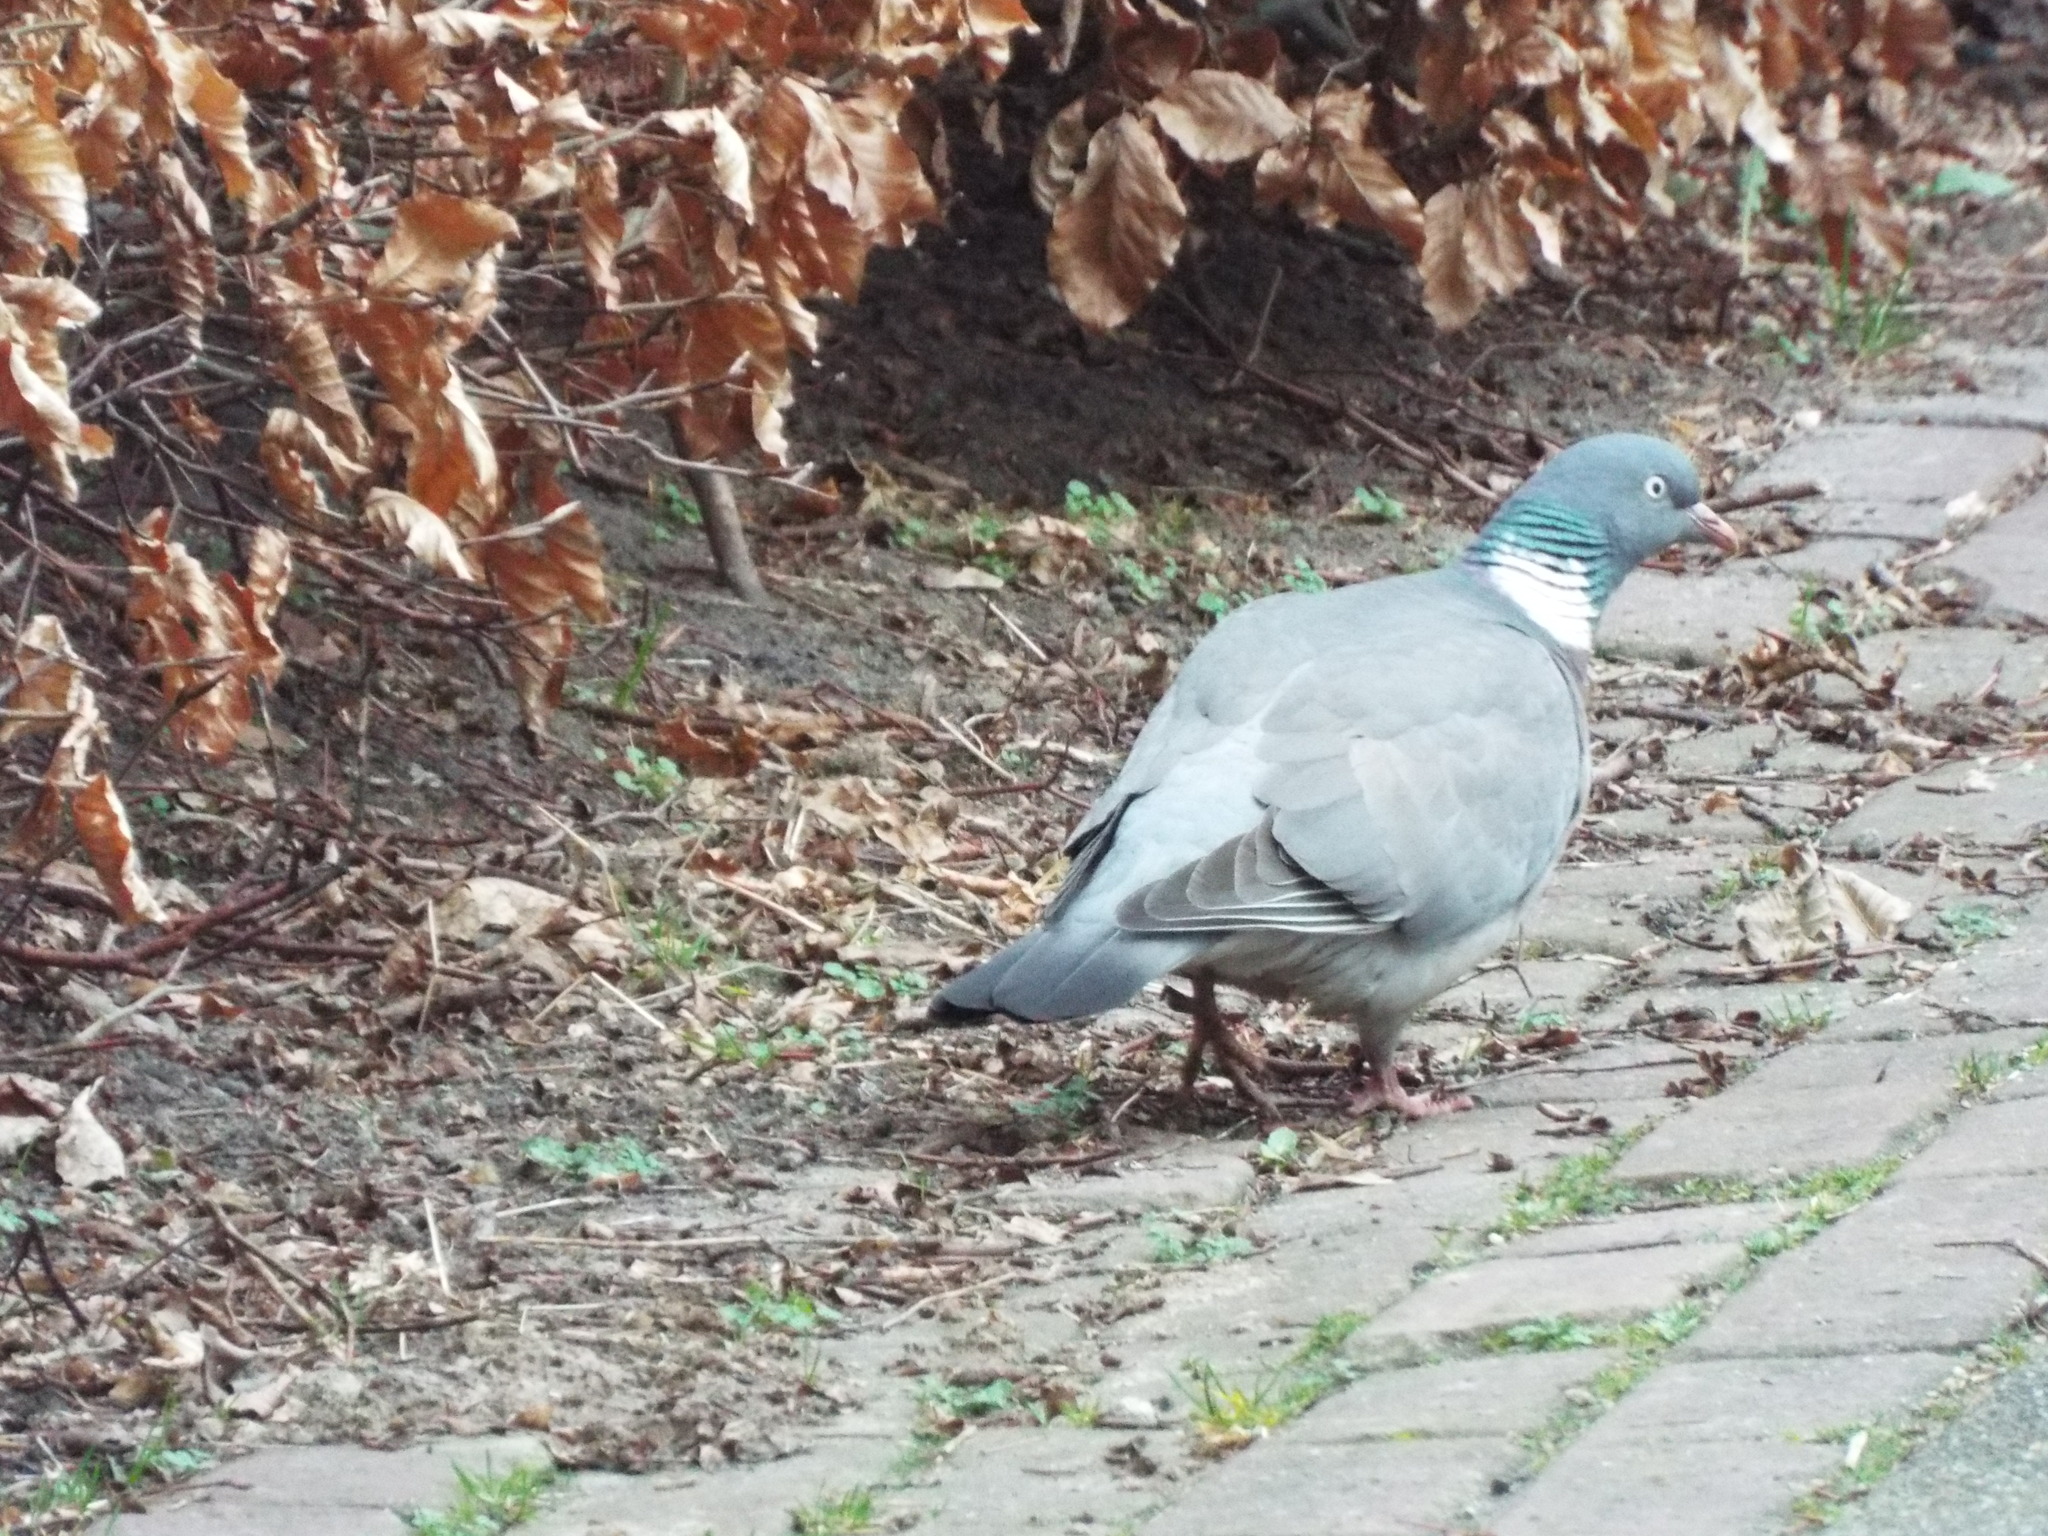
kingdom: Animalia
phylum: Chordata
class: Aves
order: Columbiformes
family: Columbidae
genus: Columba
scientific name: Columba palumbus
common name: Common wood pigeon
